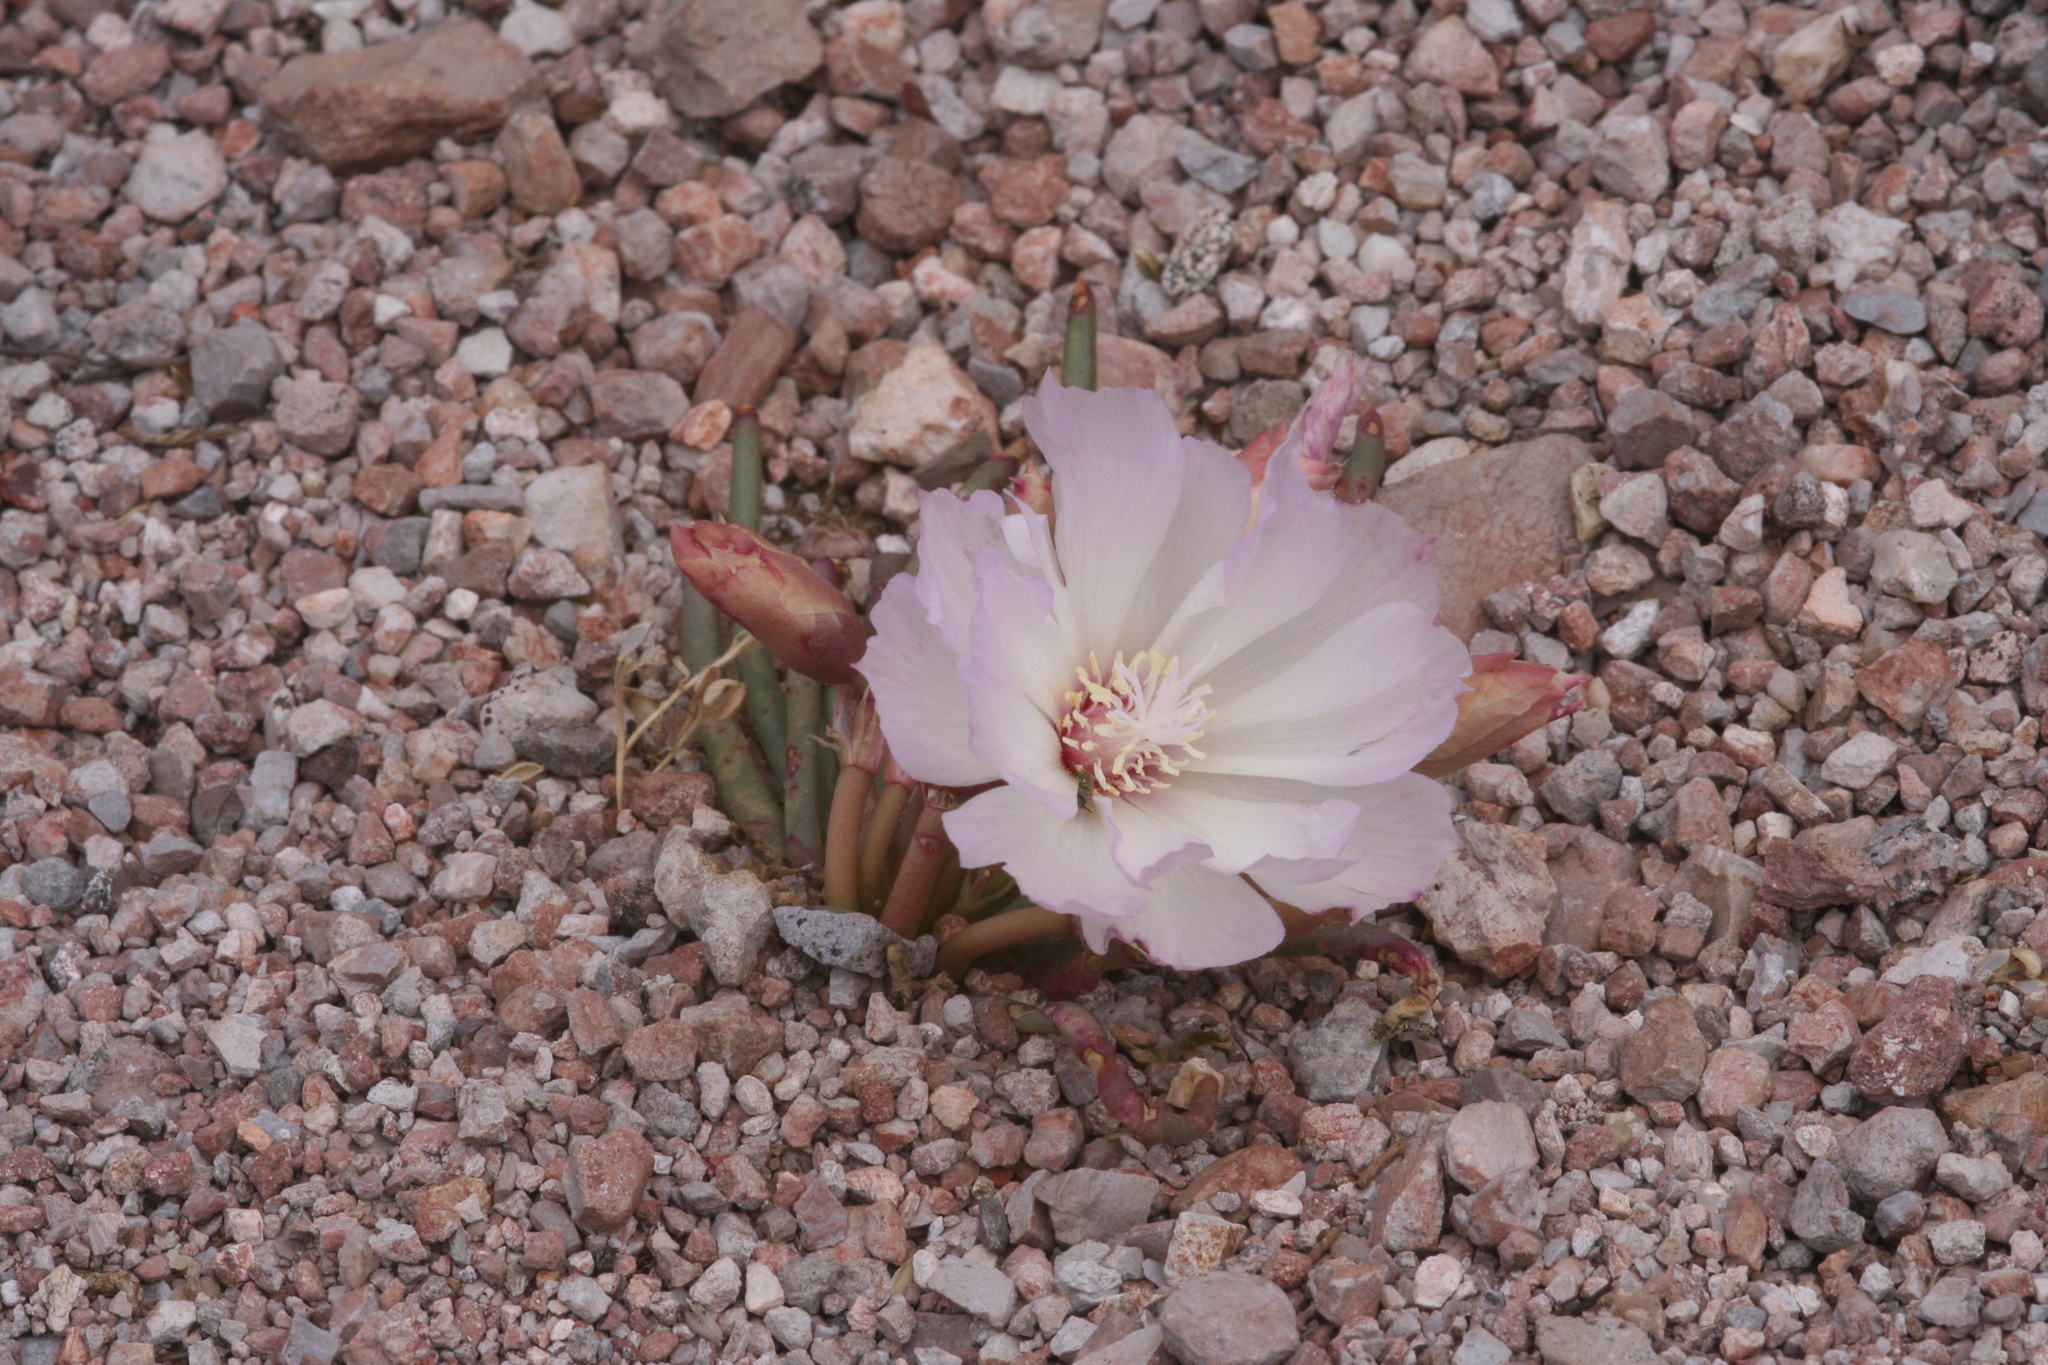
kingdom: Plantae
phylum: Tracheophyta
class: Magnoliopsida
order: Caryophyllales
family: Montiaceae
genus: Lewisia
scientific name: Lewisia rediviva
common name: Bitter-root
